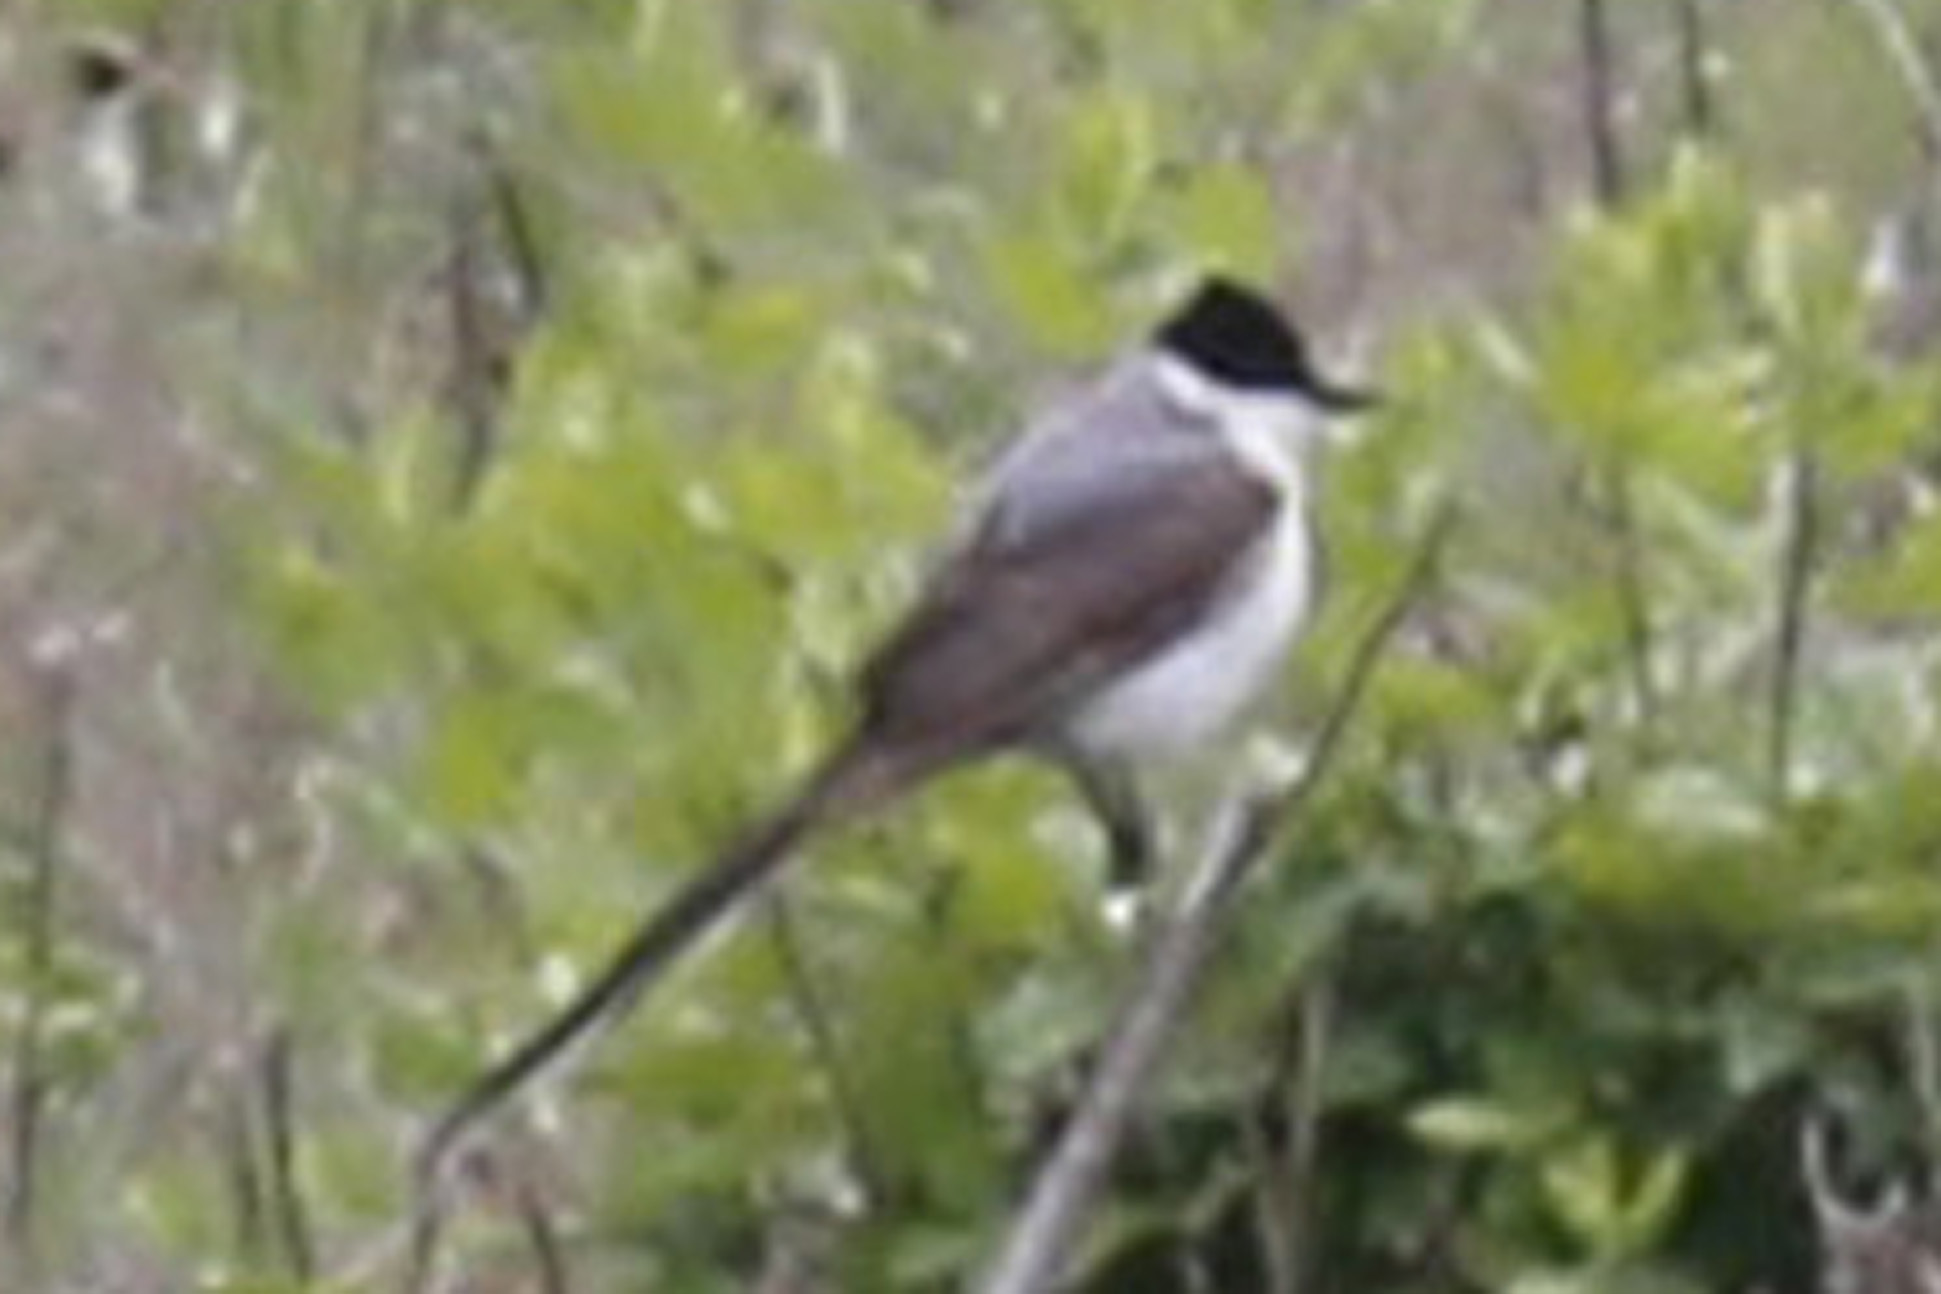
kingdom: Animalia
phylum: Chordata
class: Aves
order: Passeriformes
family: Tyrannidae
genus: Tyrannus
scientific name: Tyrannus savana
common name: Fork-tailed flycatcher
